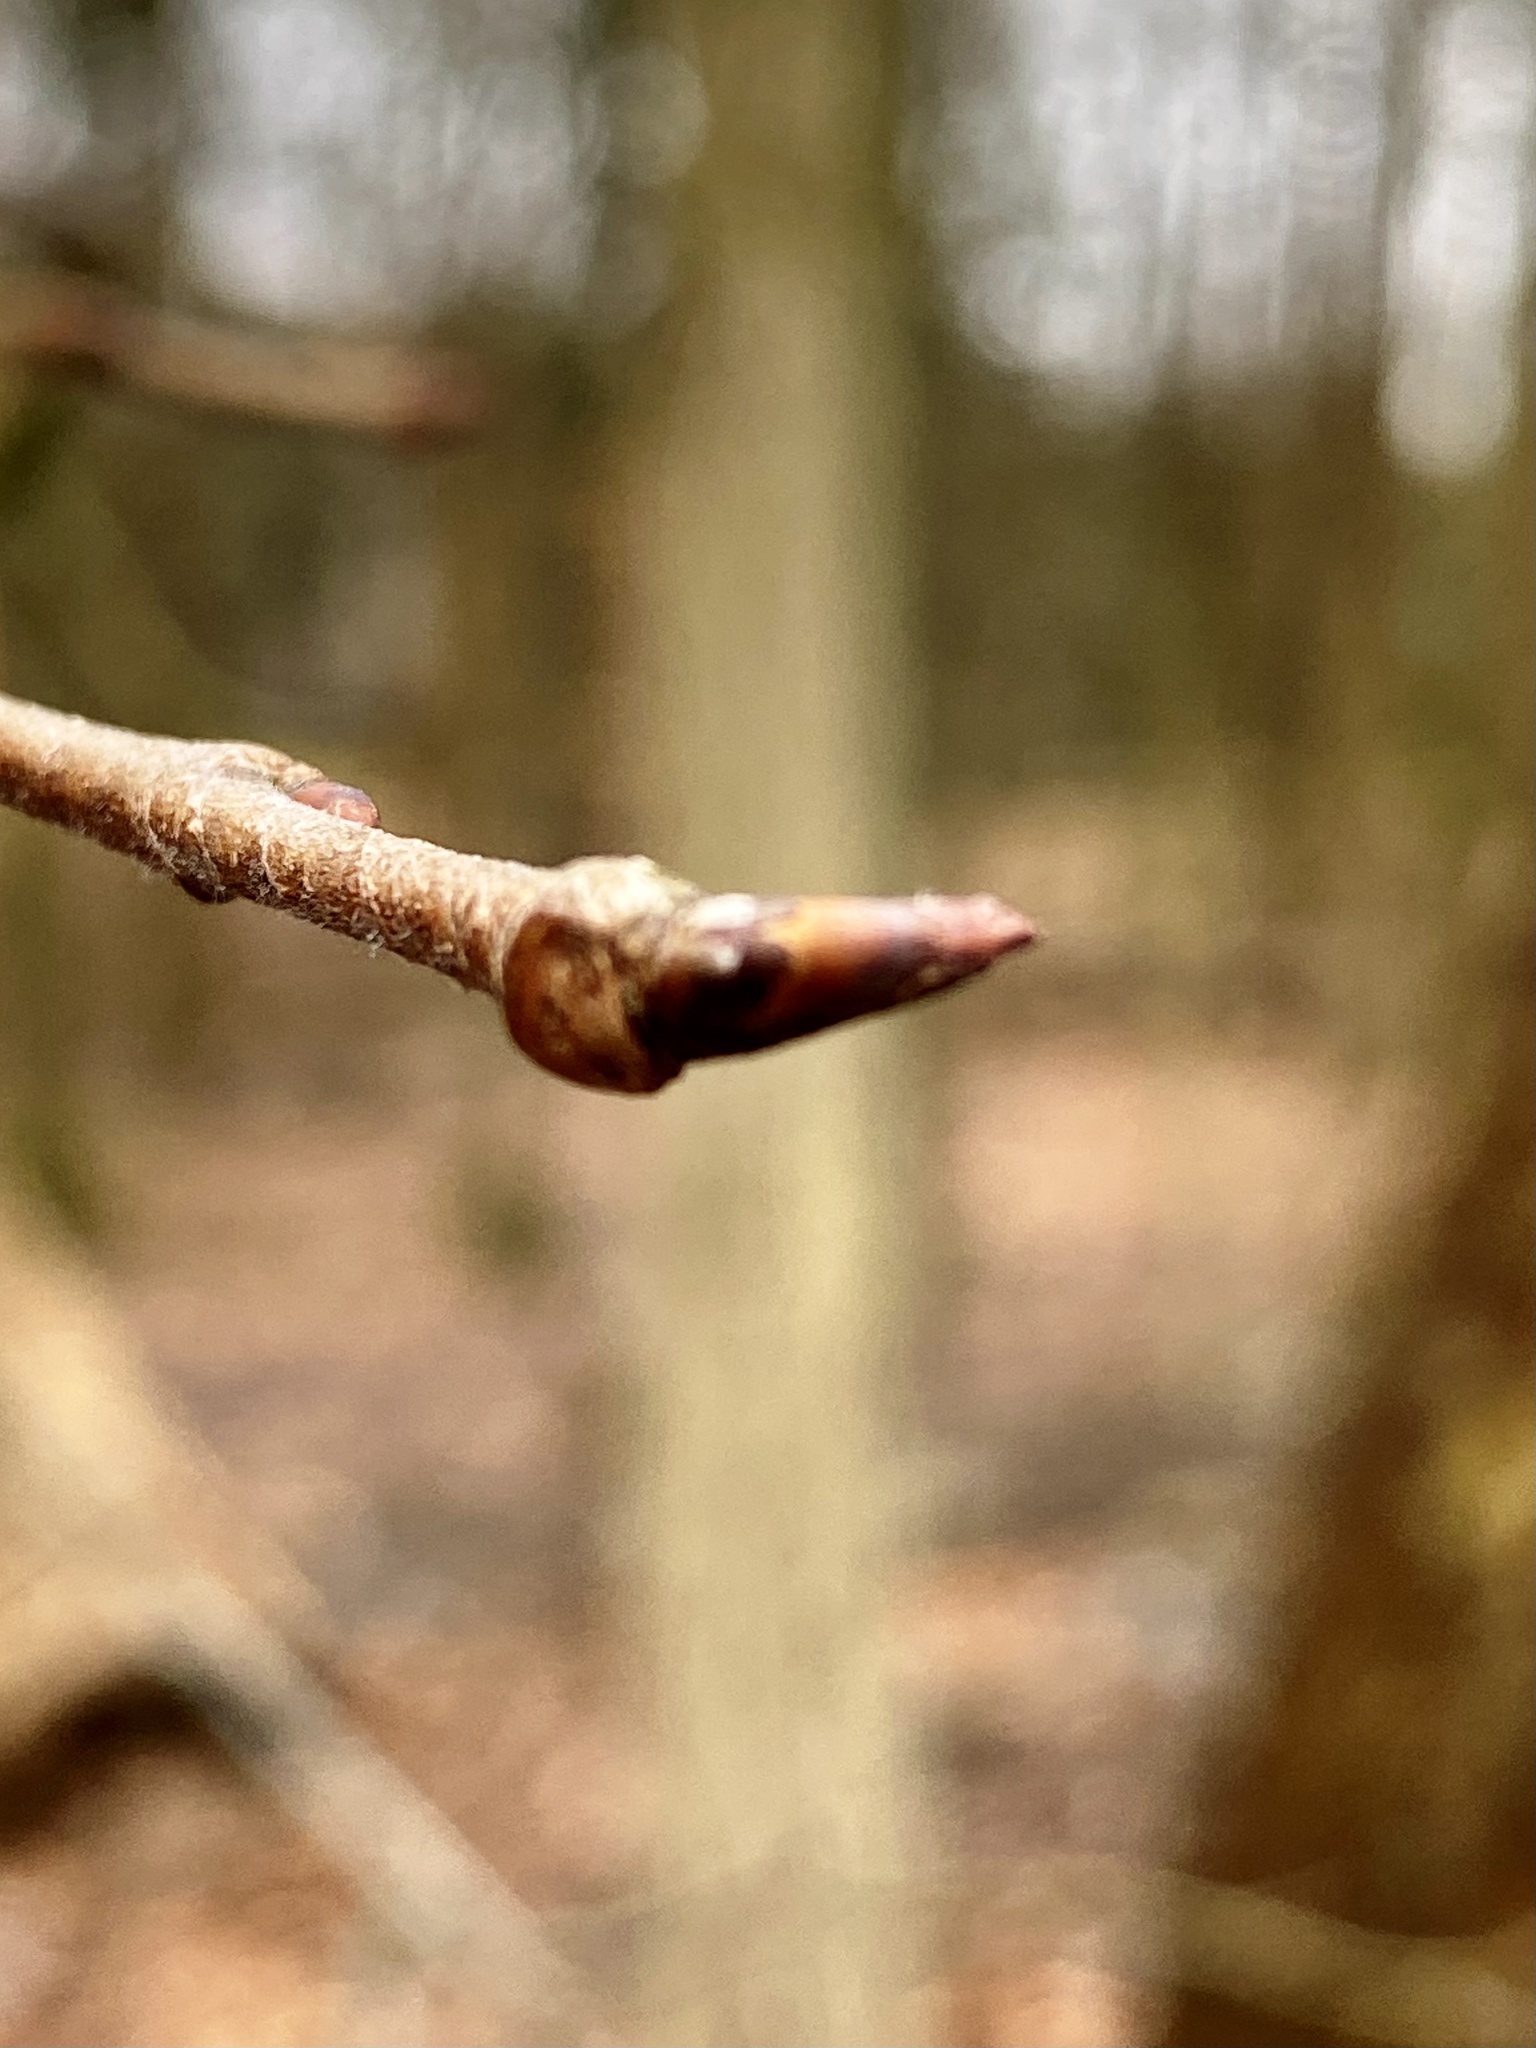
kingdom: Plantae
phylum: Tracheophyta
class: Magnoliopsida
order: Rosales
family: Ulmaceae
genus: Ulmus
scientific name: Ulmus americana
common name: American elm
